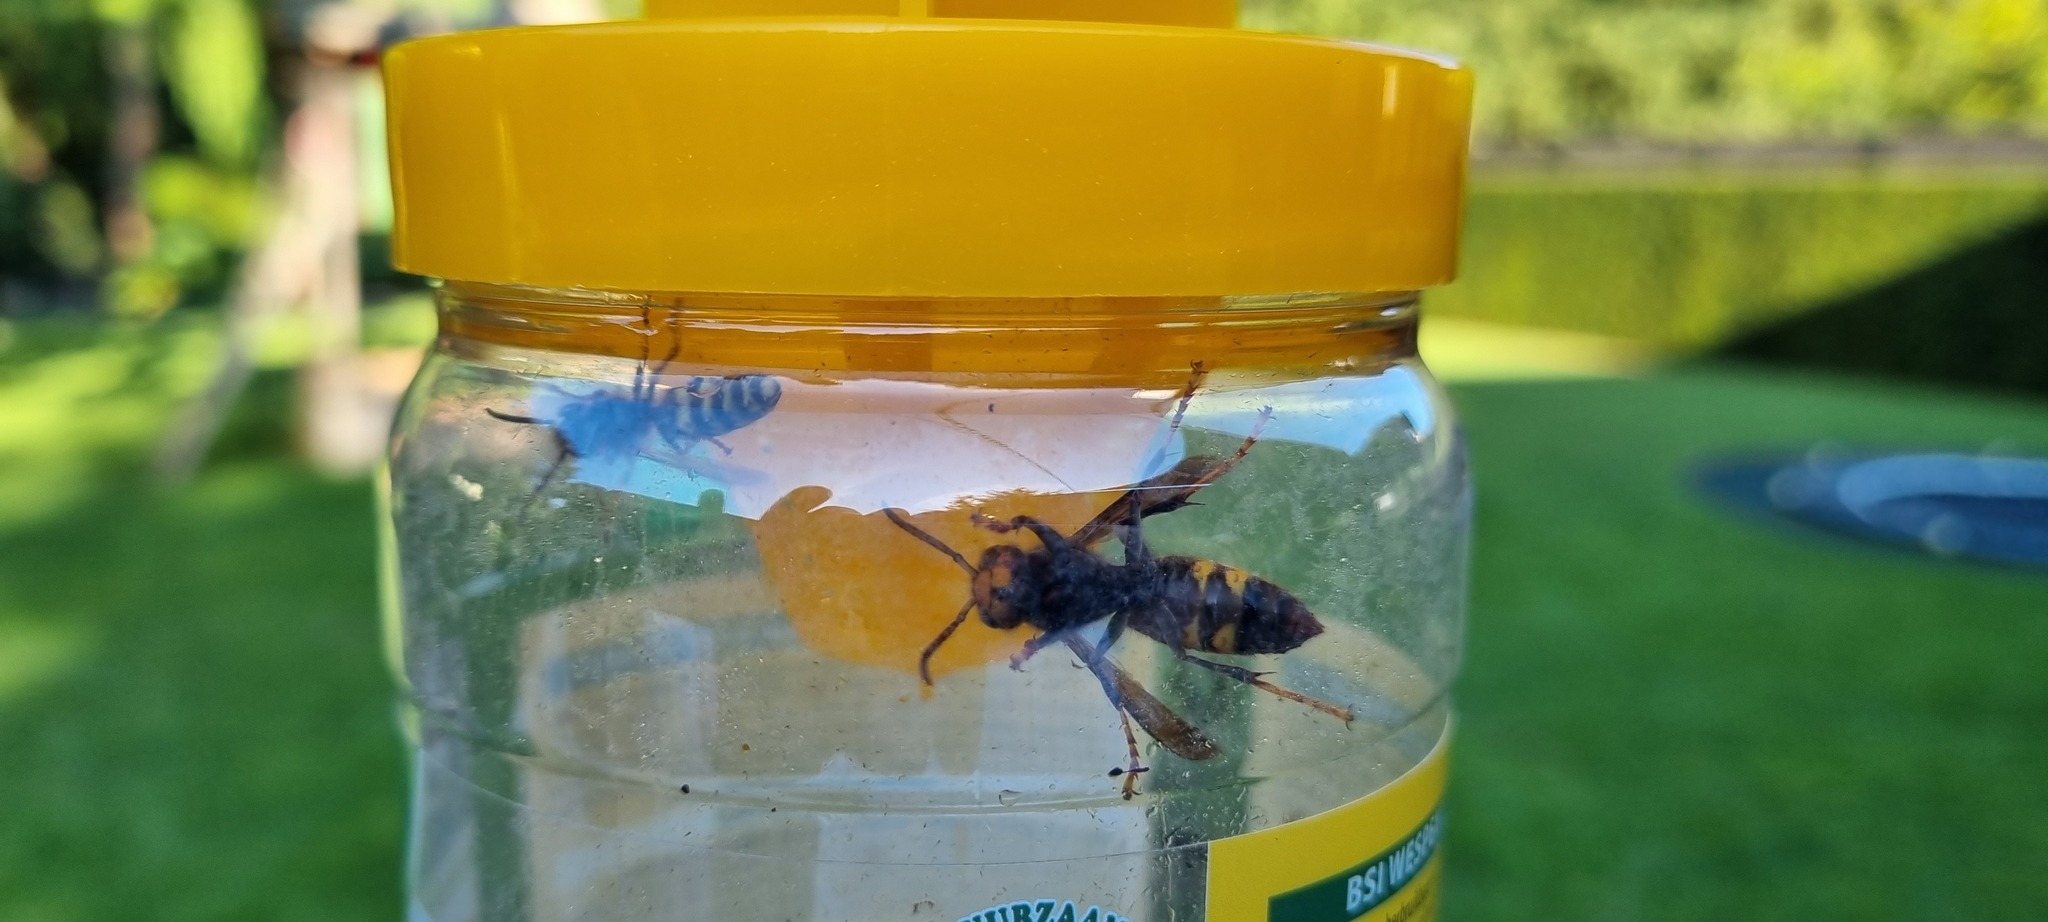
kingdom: Animalia
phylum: Arthropoda
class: Insecta
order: Hymenoptera
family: Vespidae
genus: Vespa
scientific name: Vespa velutina
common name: Asian hornet
